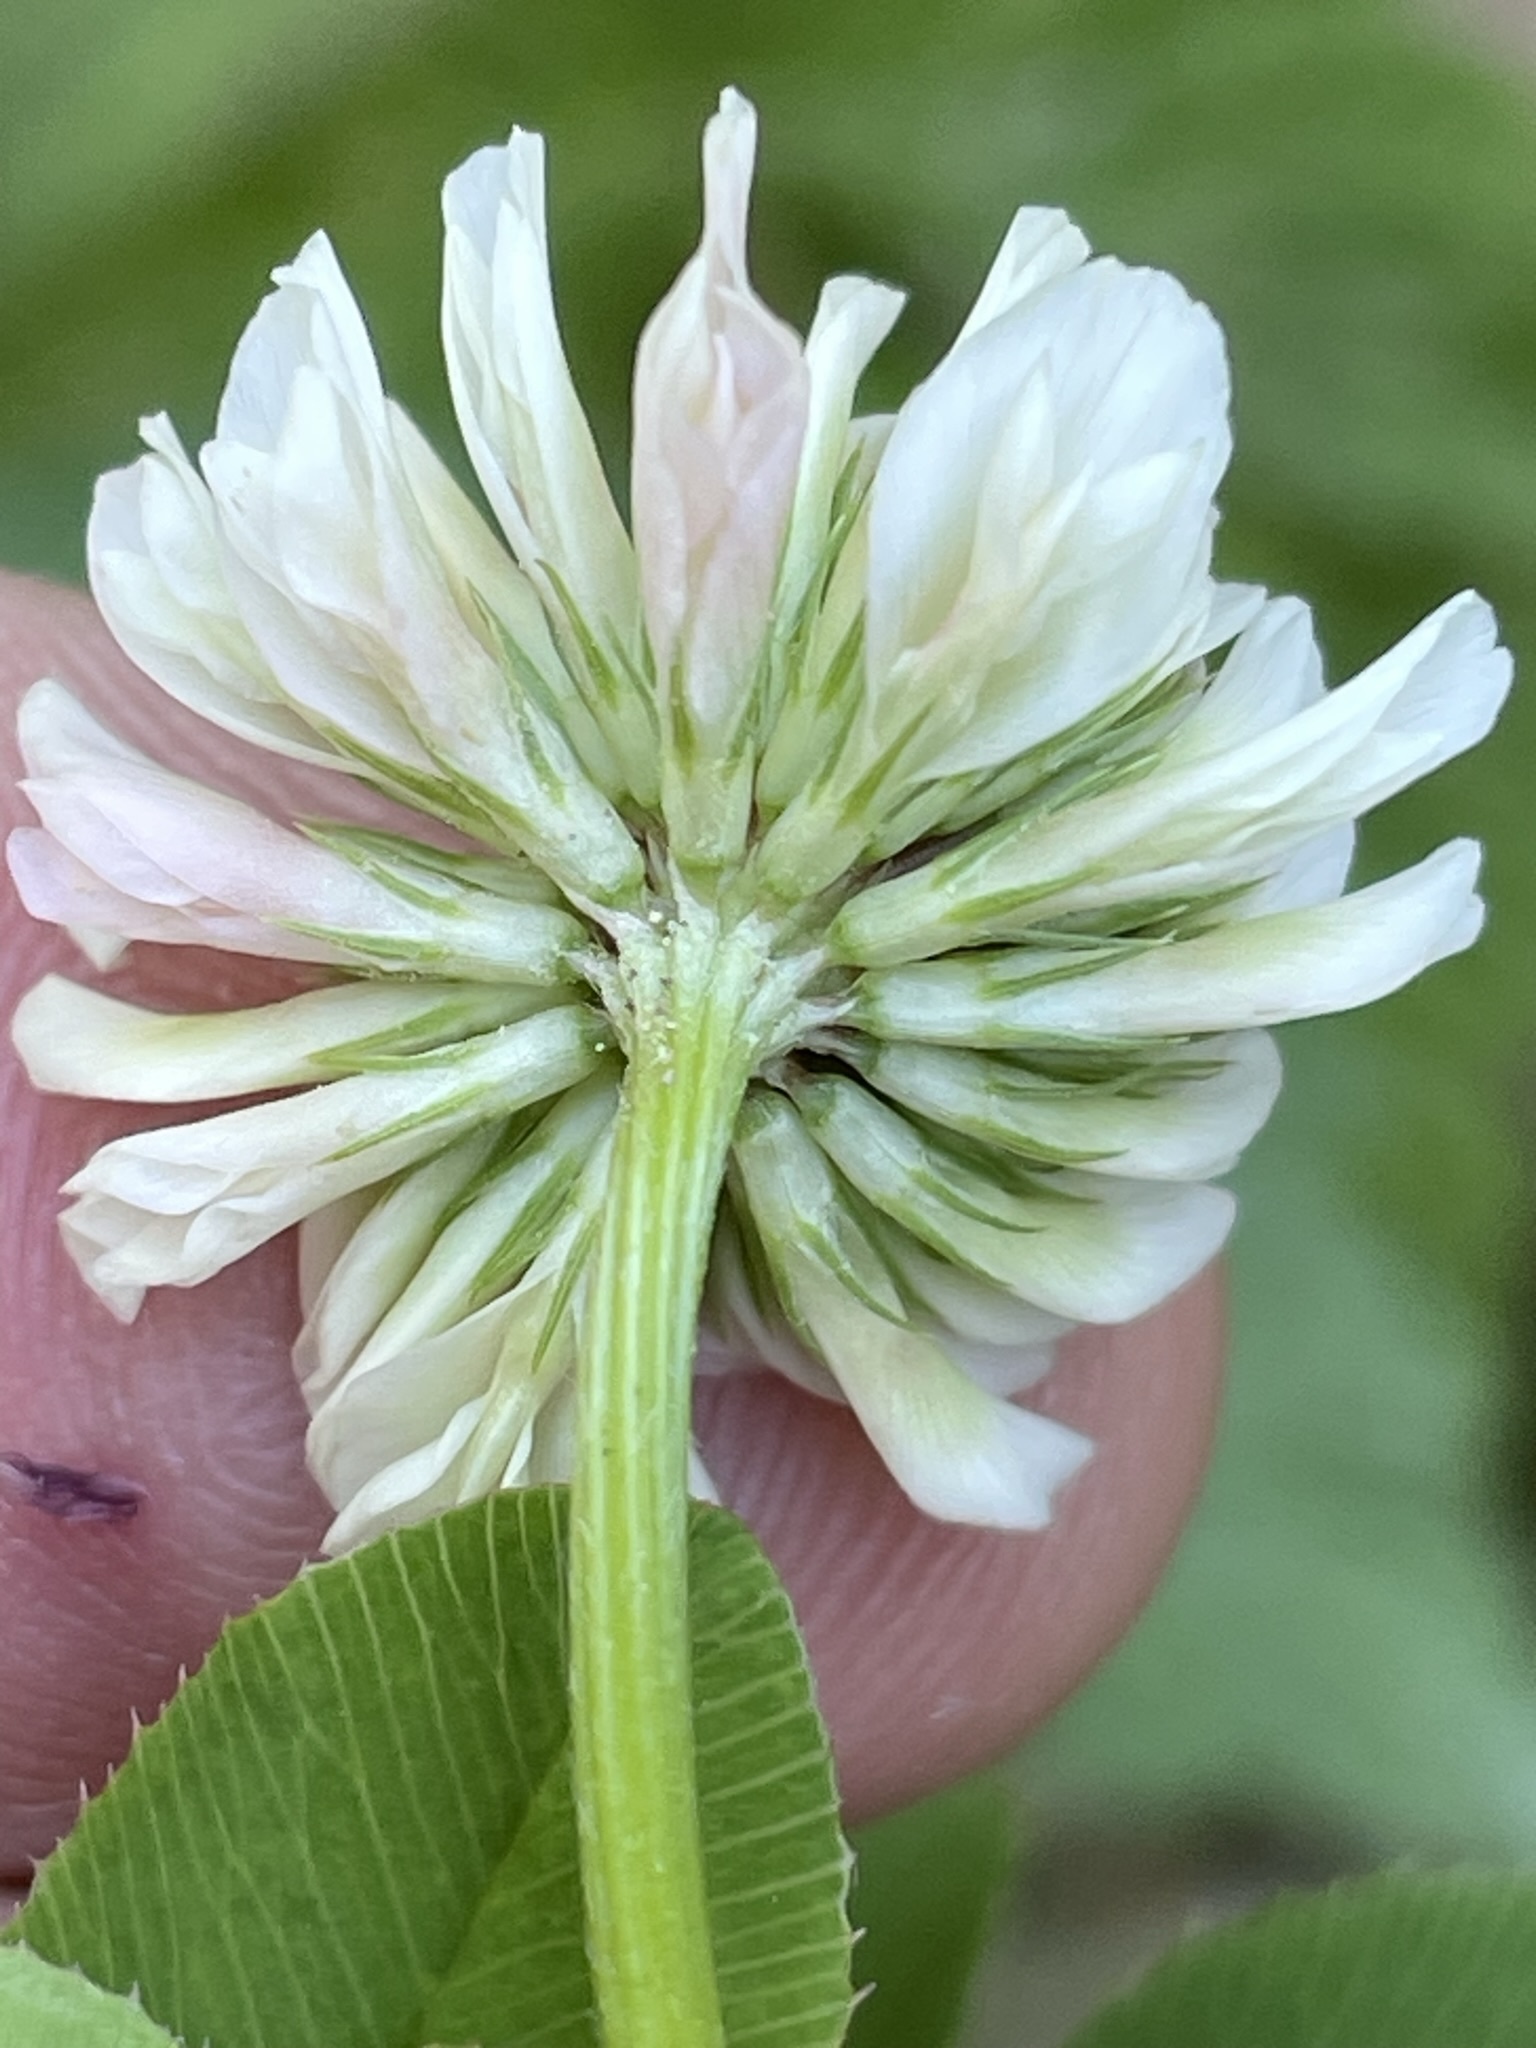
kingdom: Plantae
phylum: Tracheophyta
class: Magnoliopsida
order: Fabales
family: Fabaceae
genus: Trifolium
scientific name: Trifolium hybridum
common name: Alsike clover
